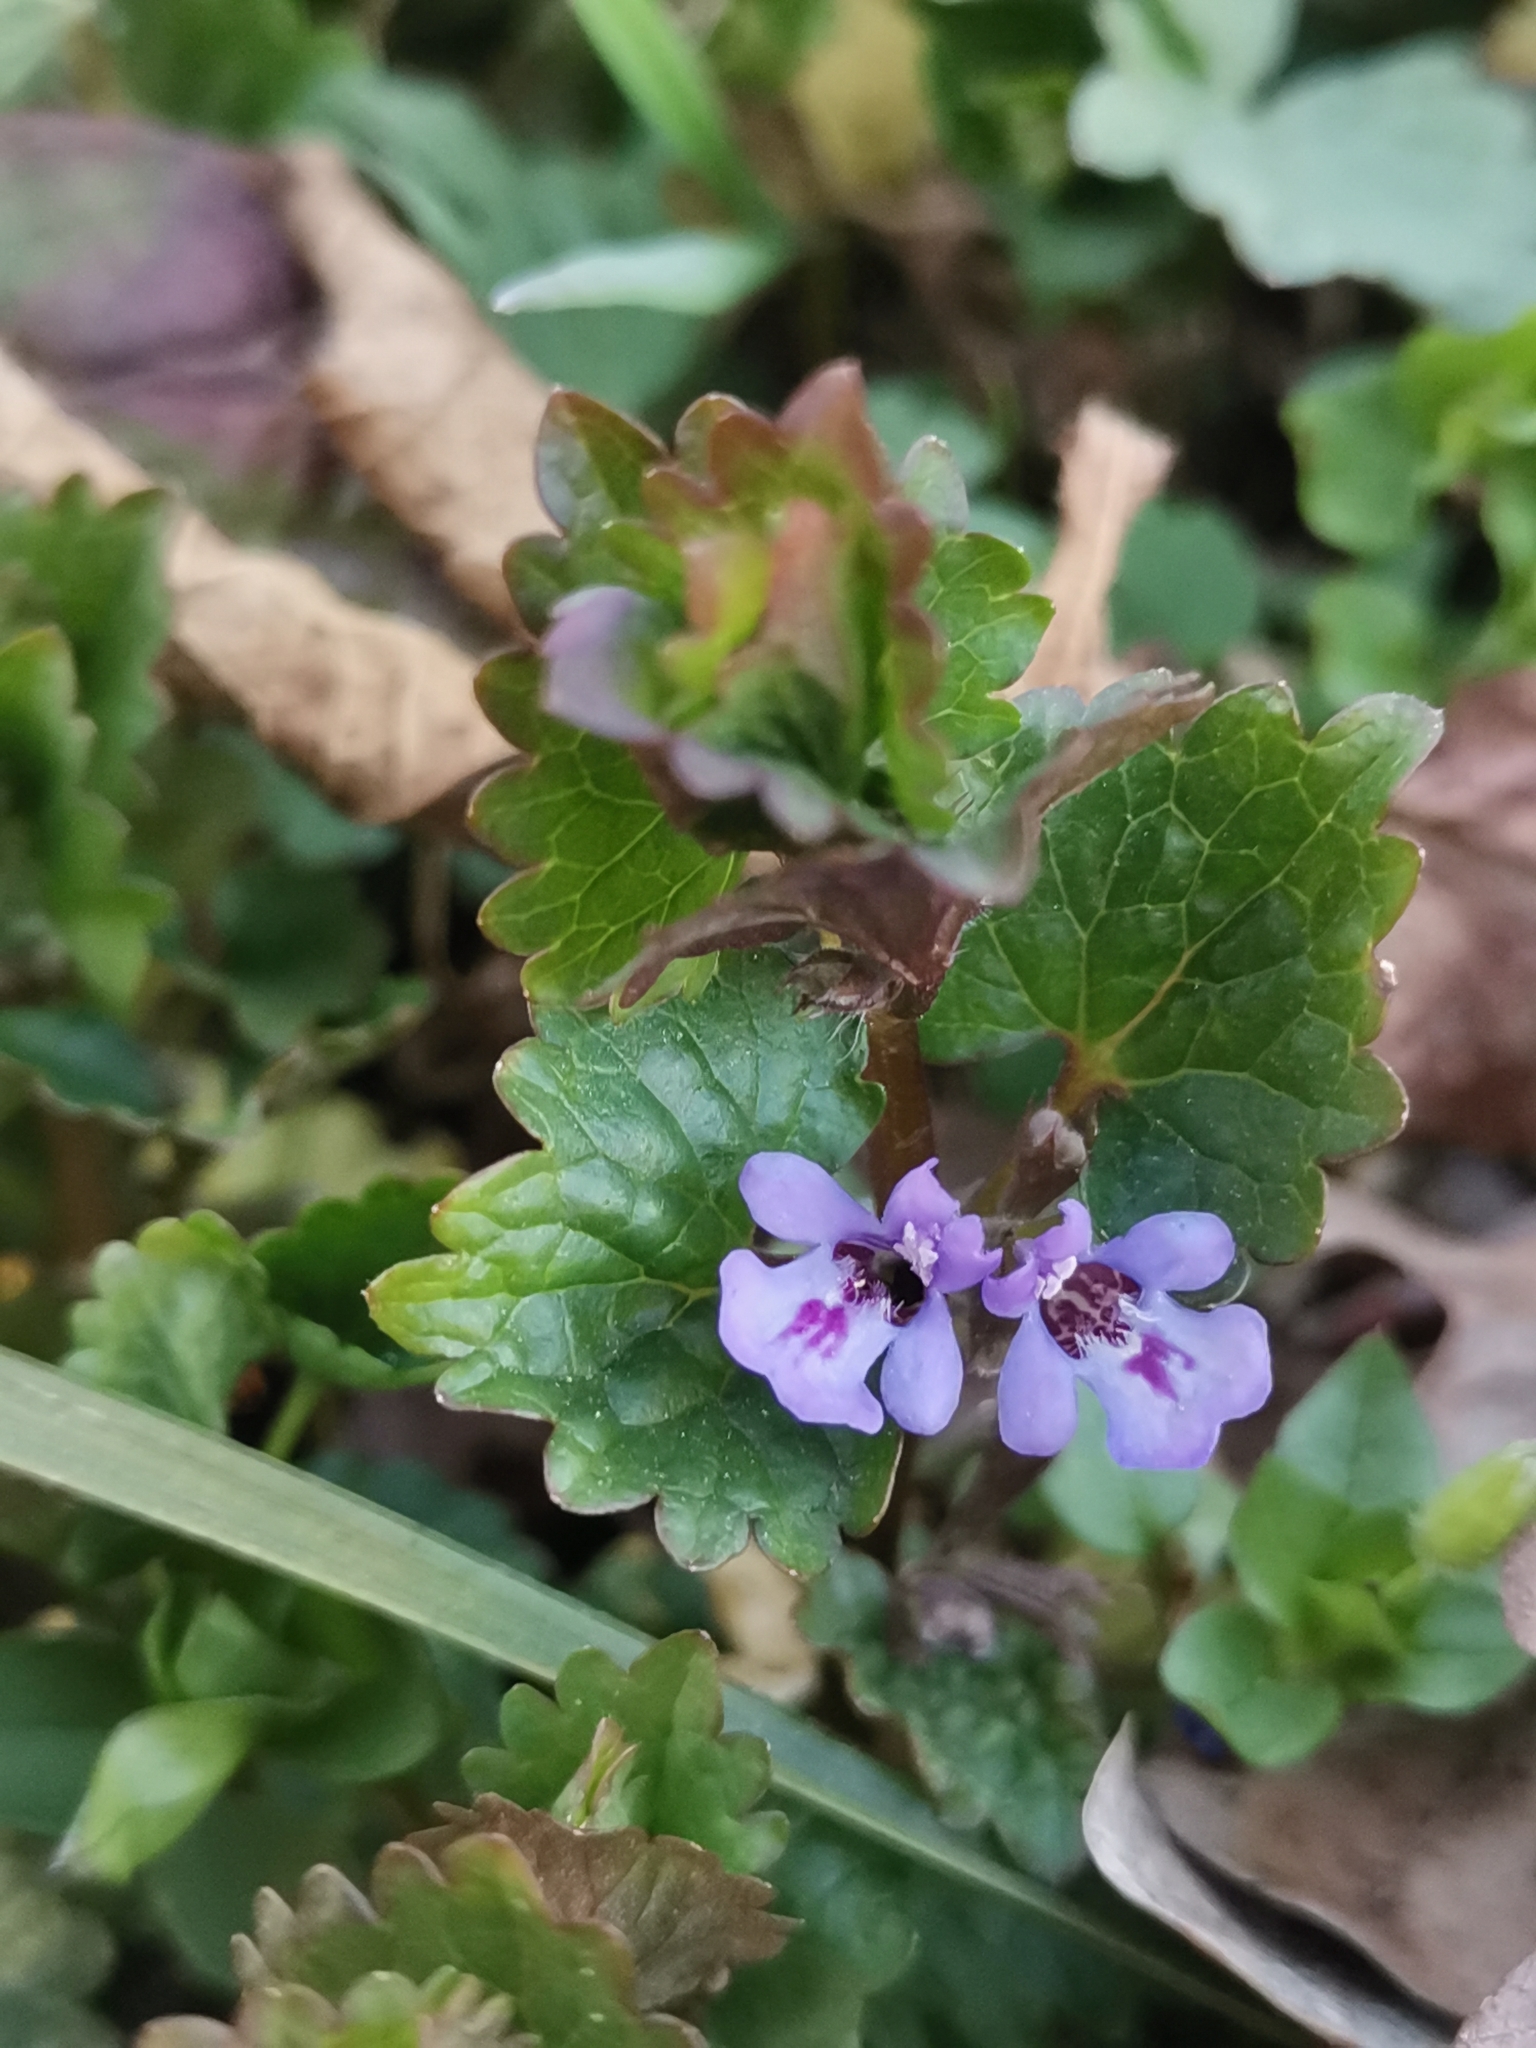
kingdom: Plantae
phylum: Tracheophyta
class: Magnoliopsida
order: Lamiales
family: Lamiaceae
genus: Glechoma
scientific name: Glechoma hederacea
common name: Ground ivy
